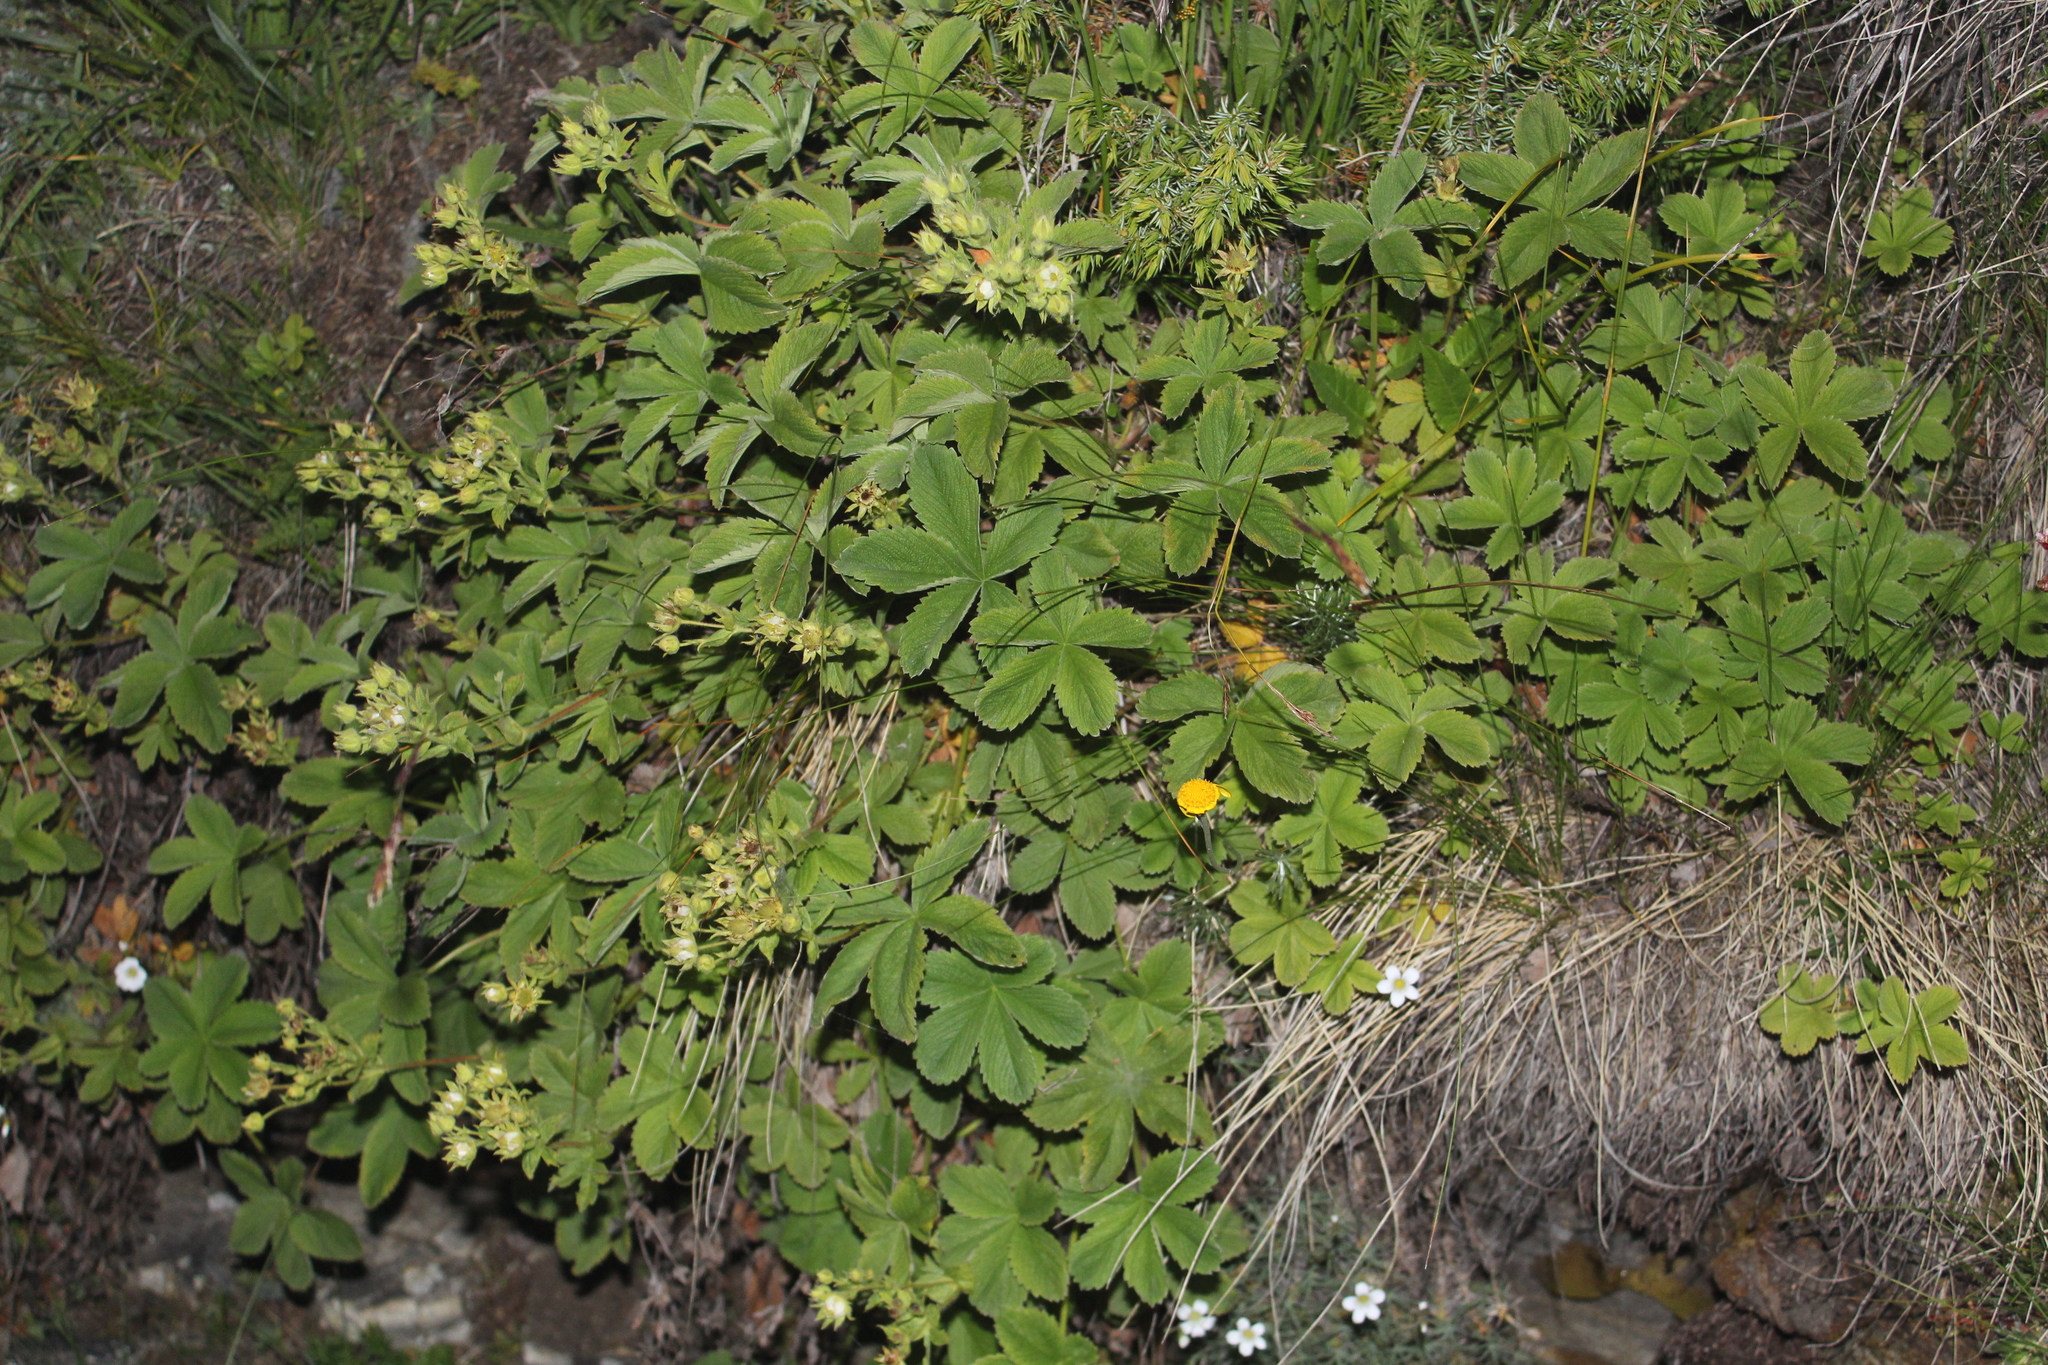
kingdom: Plantae
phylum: Tracheophyta
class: Magnoliopsida
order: Rosales
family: Rosaceae
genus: Potentilla
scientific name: Potentilla brachypetala
